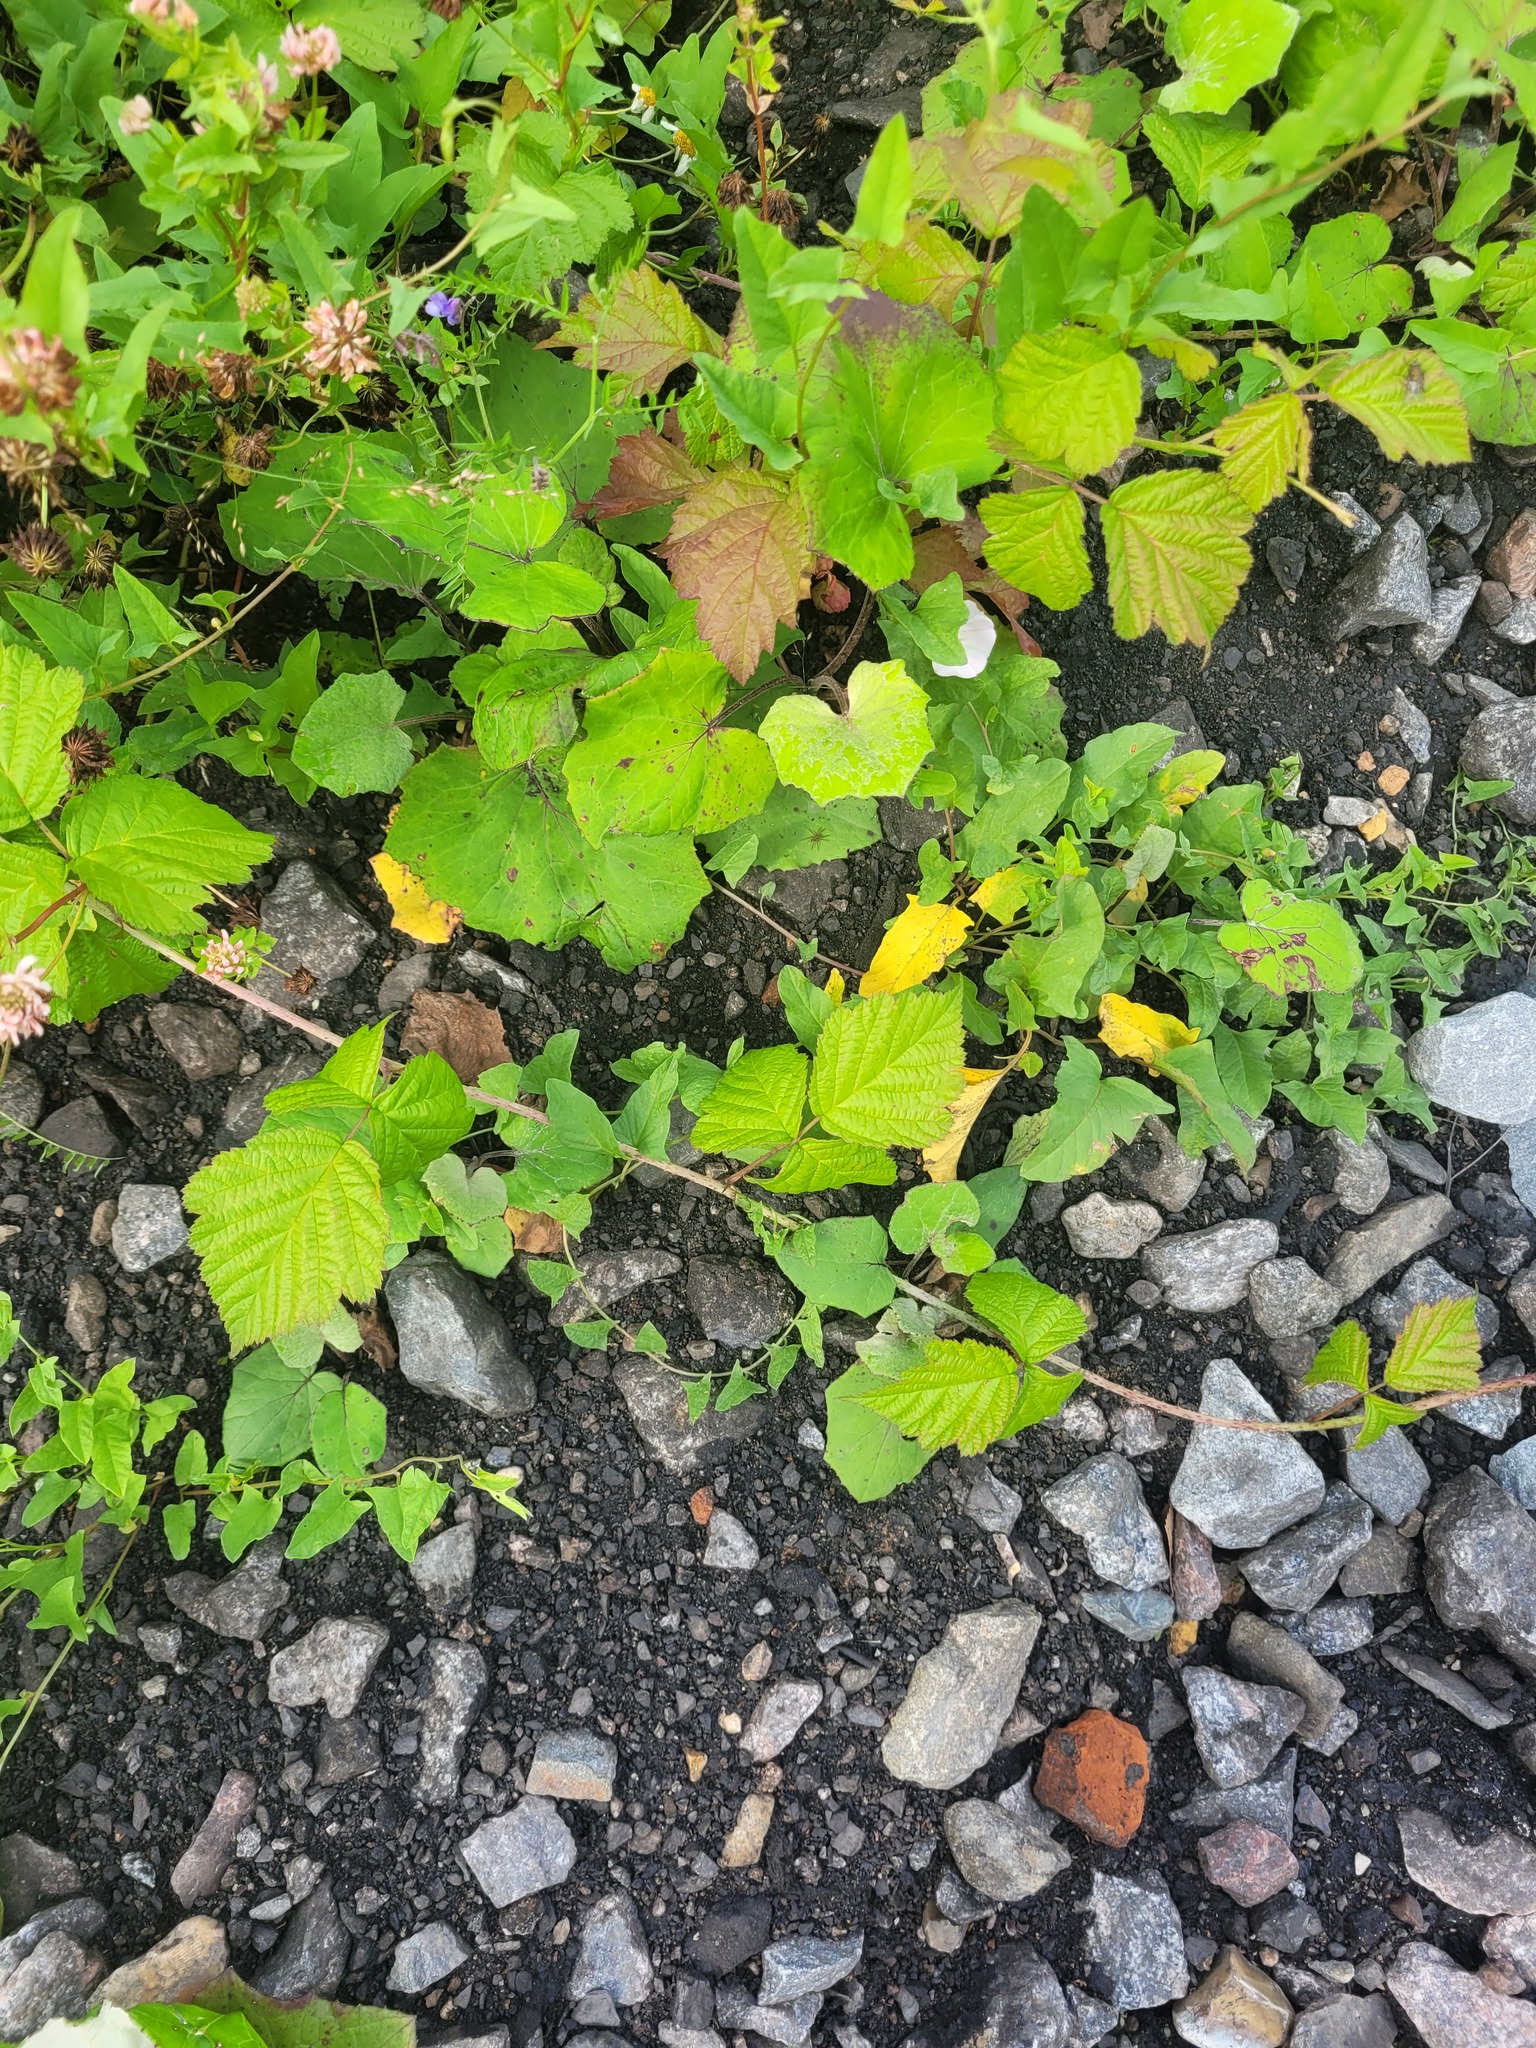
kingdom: Plantae
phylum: Tracheophyta
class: Magnoliopsida
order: Rosales
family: Rosaceae
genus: Rubus
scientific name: Rubus caesius
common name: Dewberry
